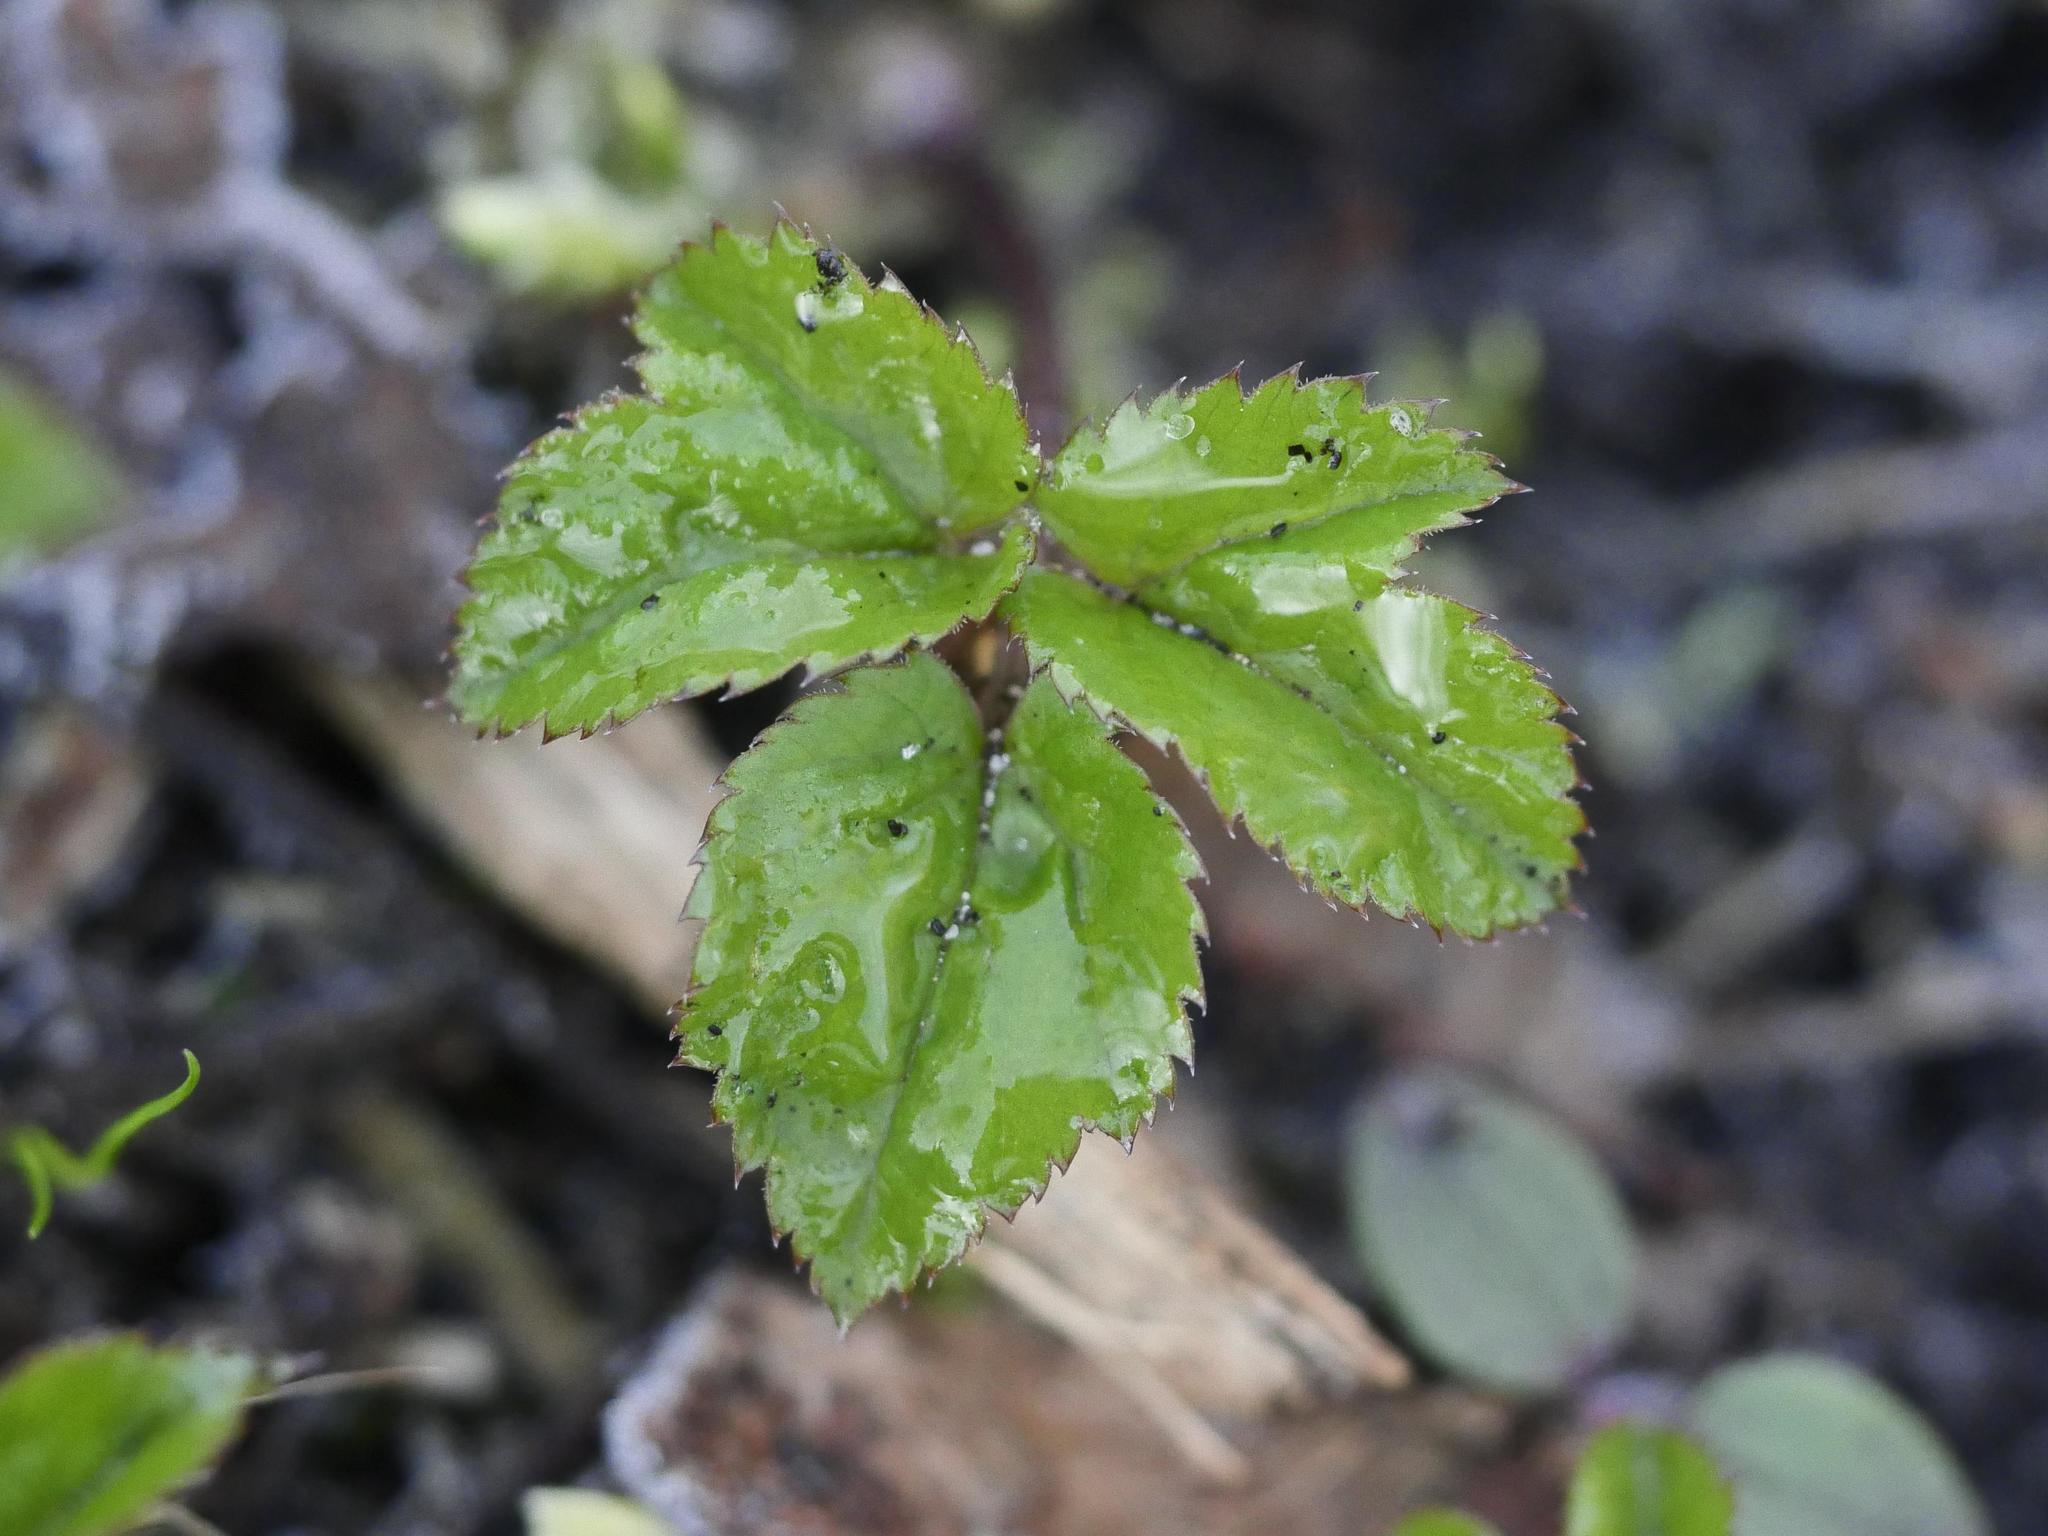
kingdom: Plantae
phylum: Tracheophyta
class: Magnoliopsida
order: Apiales
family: Apiaceae
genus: Aegopodium
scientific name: Aegopodium podagraria
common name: Ground-elder
